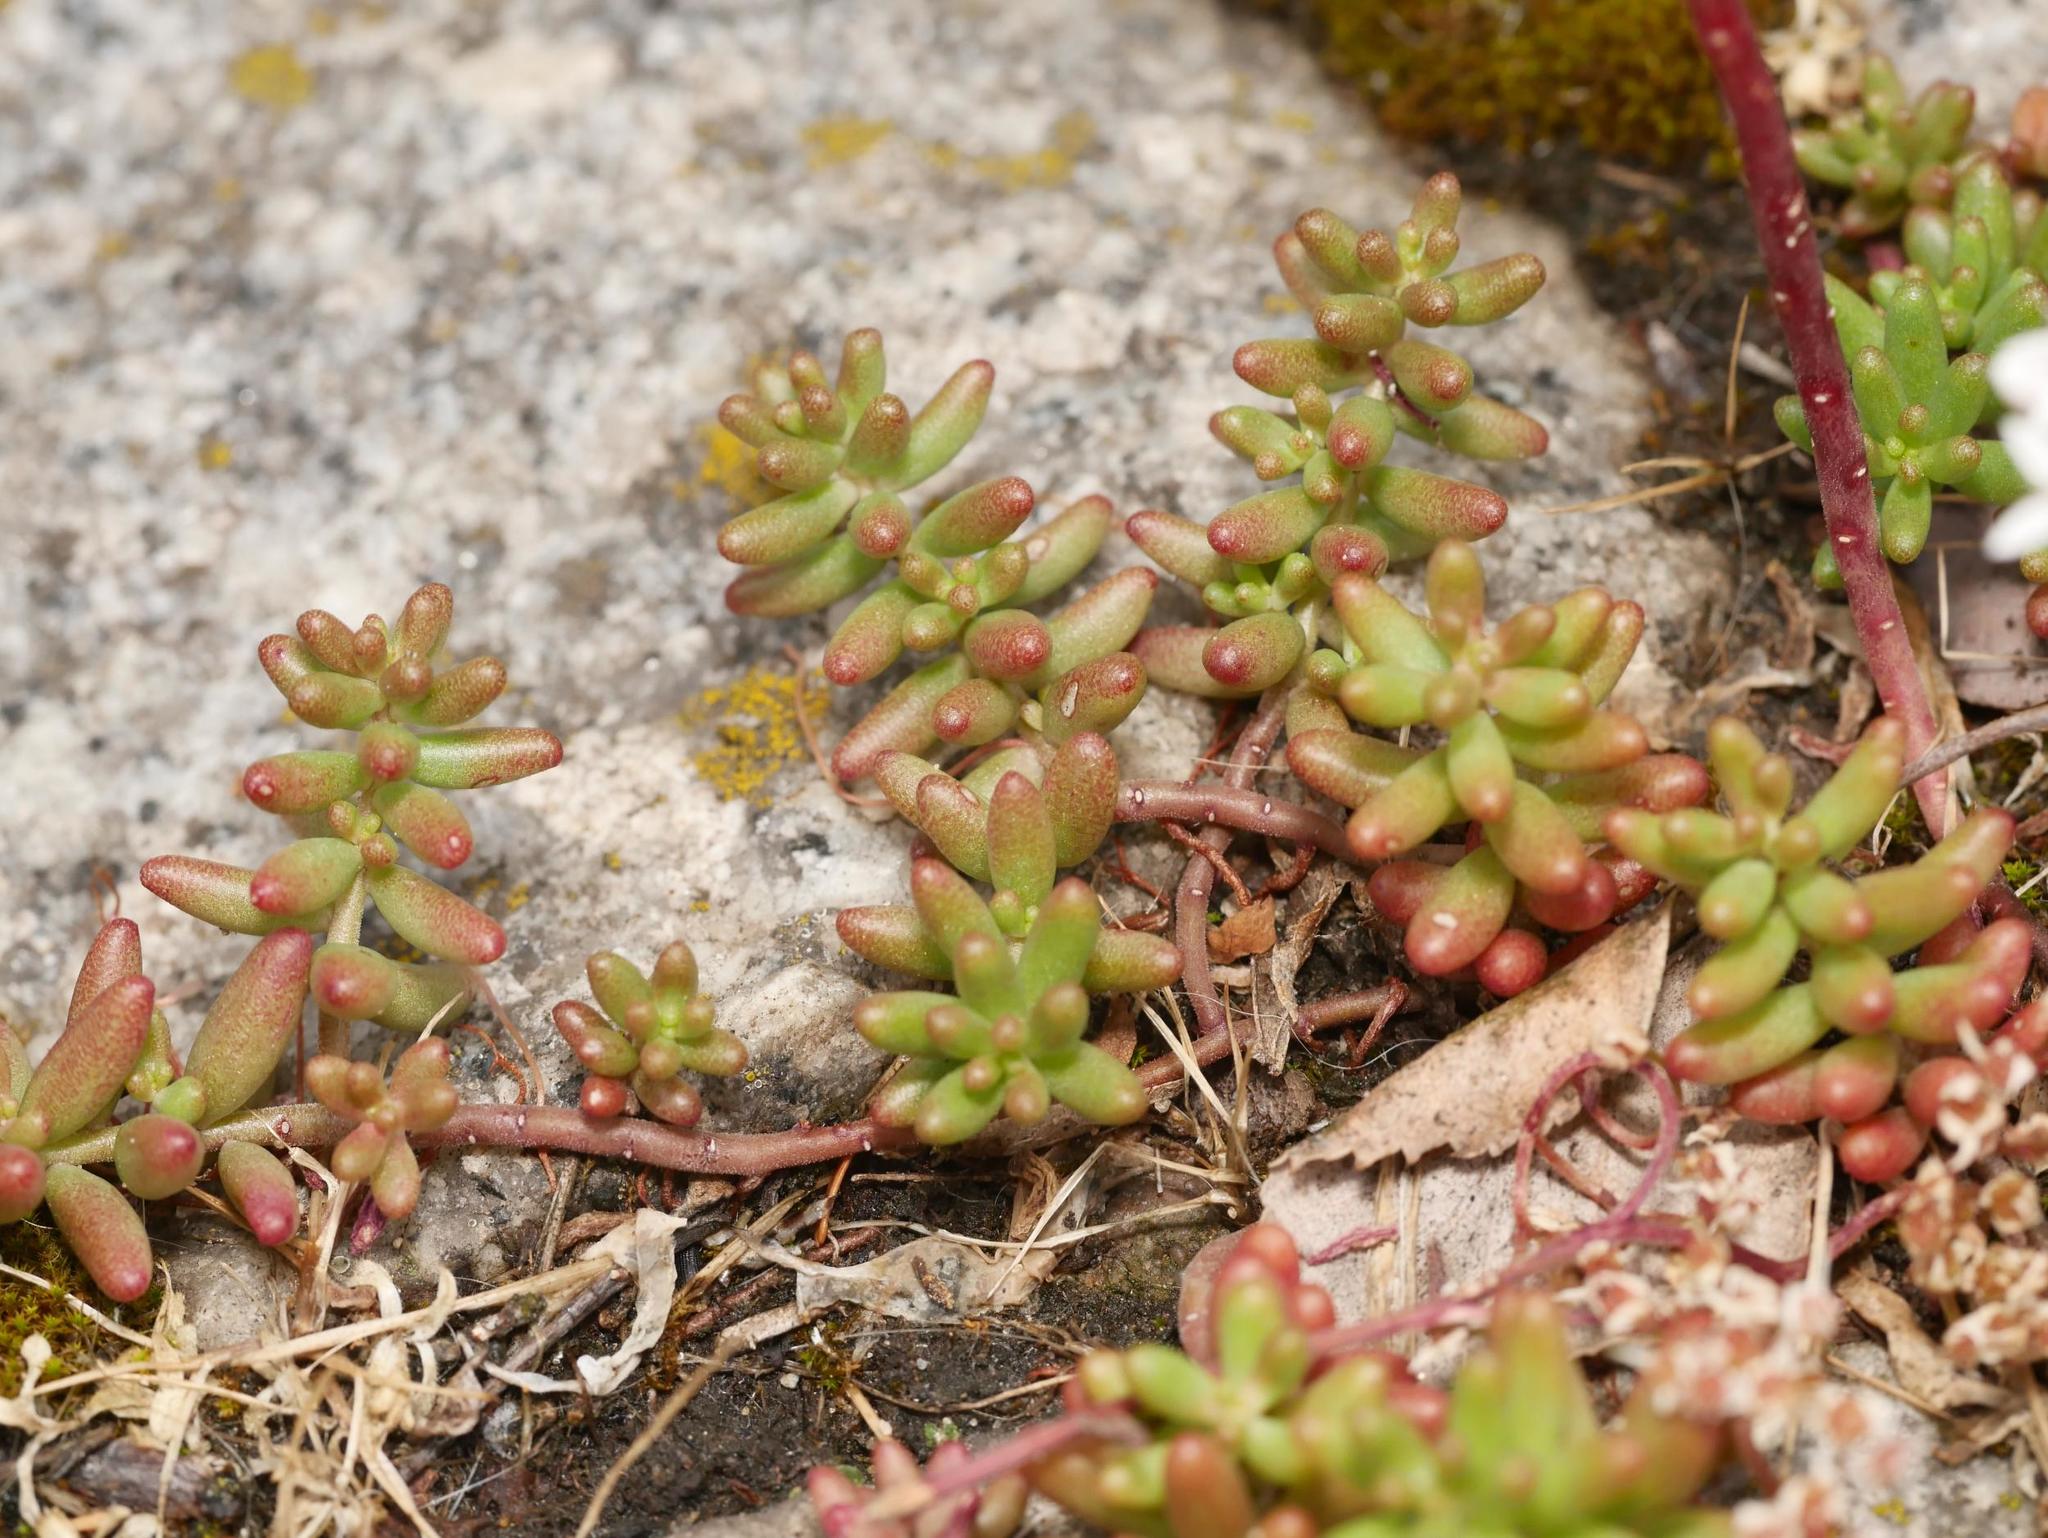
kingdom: Plantae
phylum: Tracheophyta
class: Magnoliopsida
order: Saxifragales
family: Crassulaceae
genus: Sedum
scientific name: Sedum album
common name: White stonecrop
